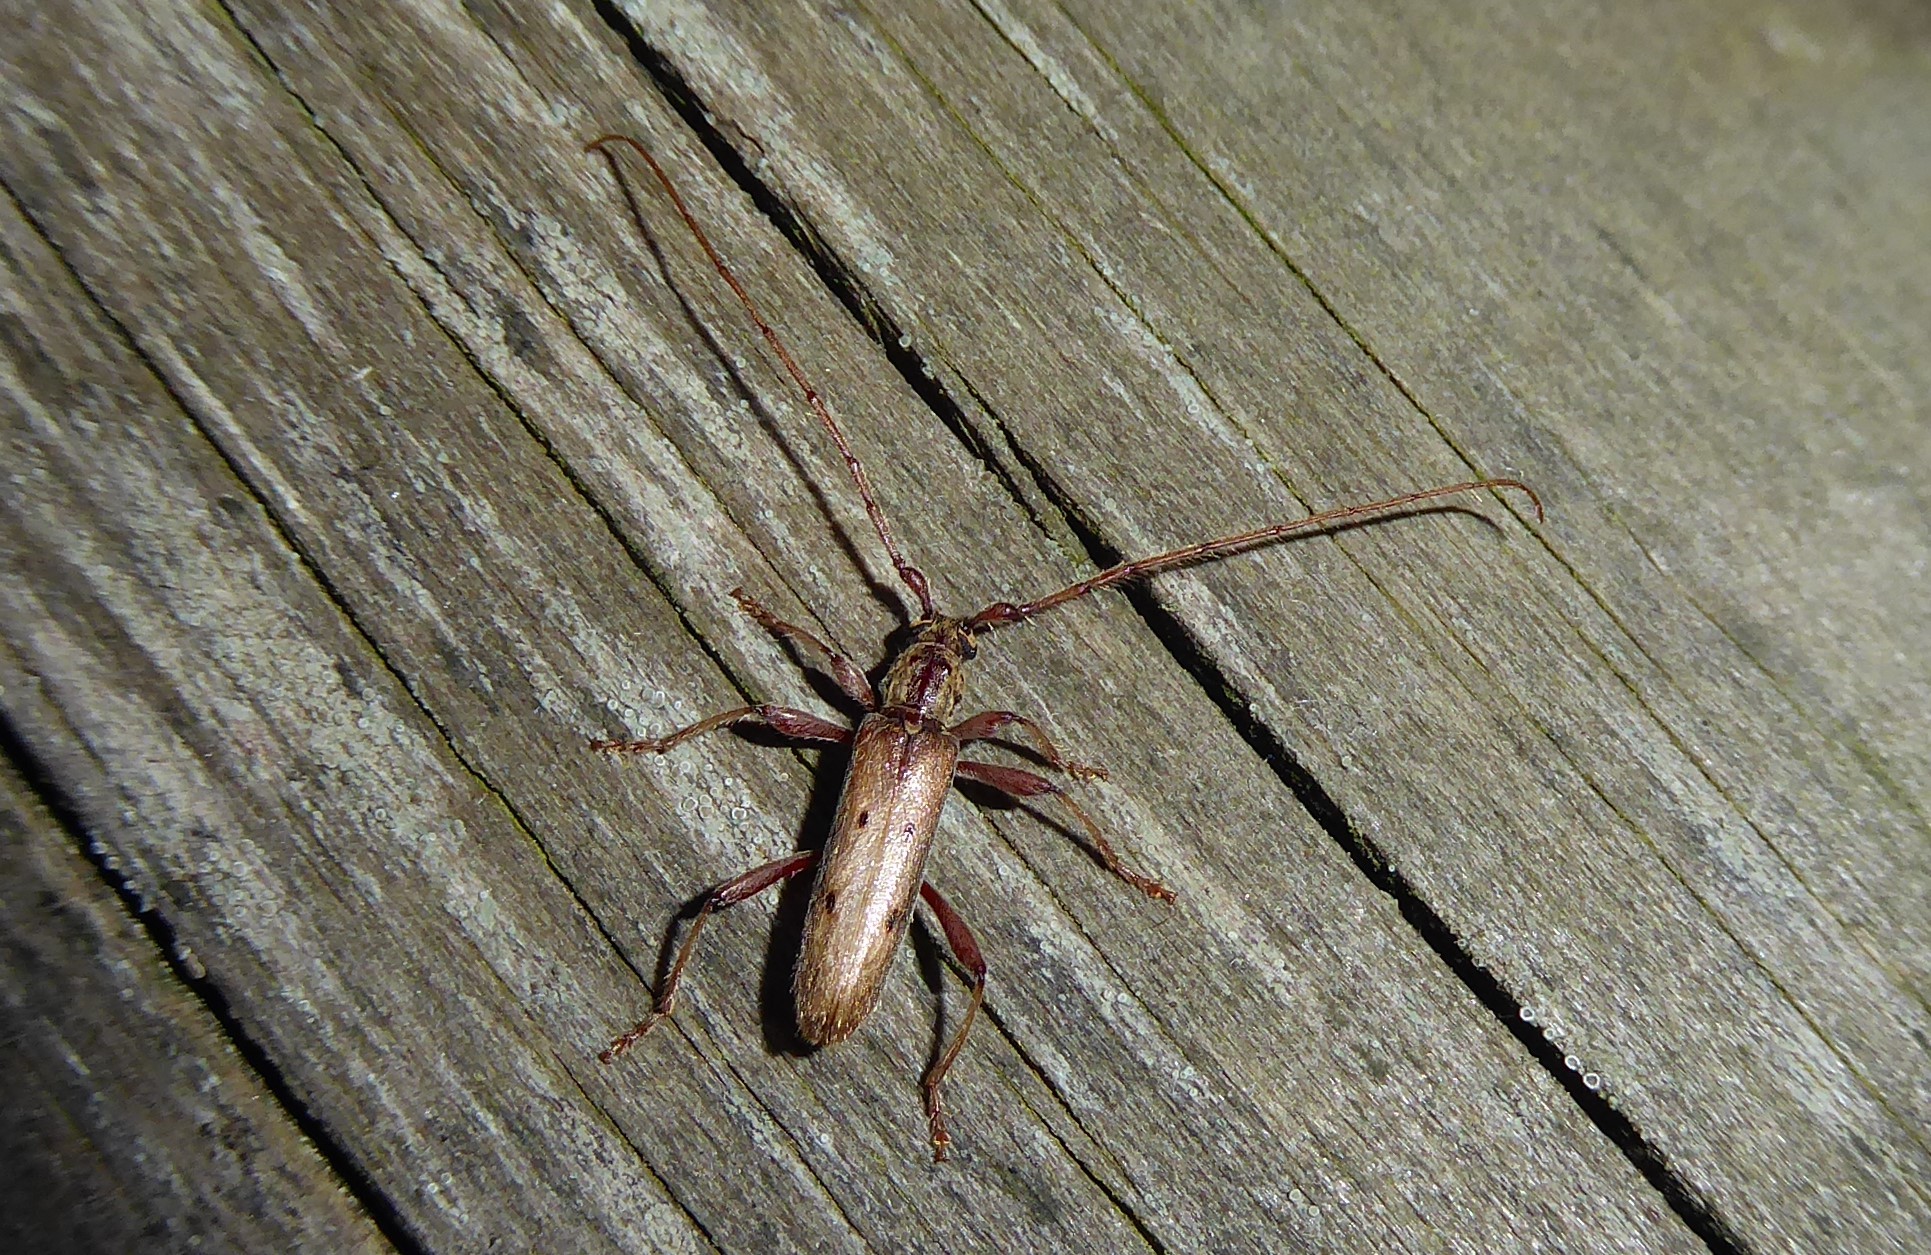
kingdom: Animalia
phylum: Arthropoda
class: Insecta
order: Coleoptera
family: Cerambycidae
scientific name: Cerambycidae
